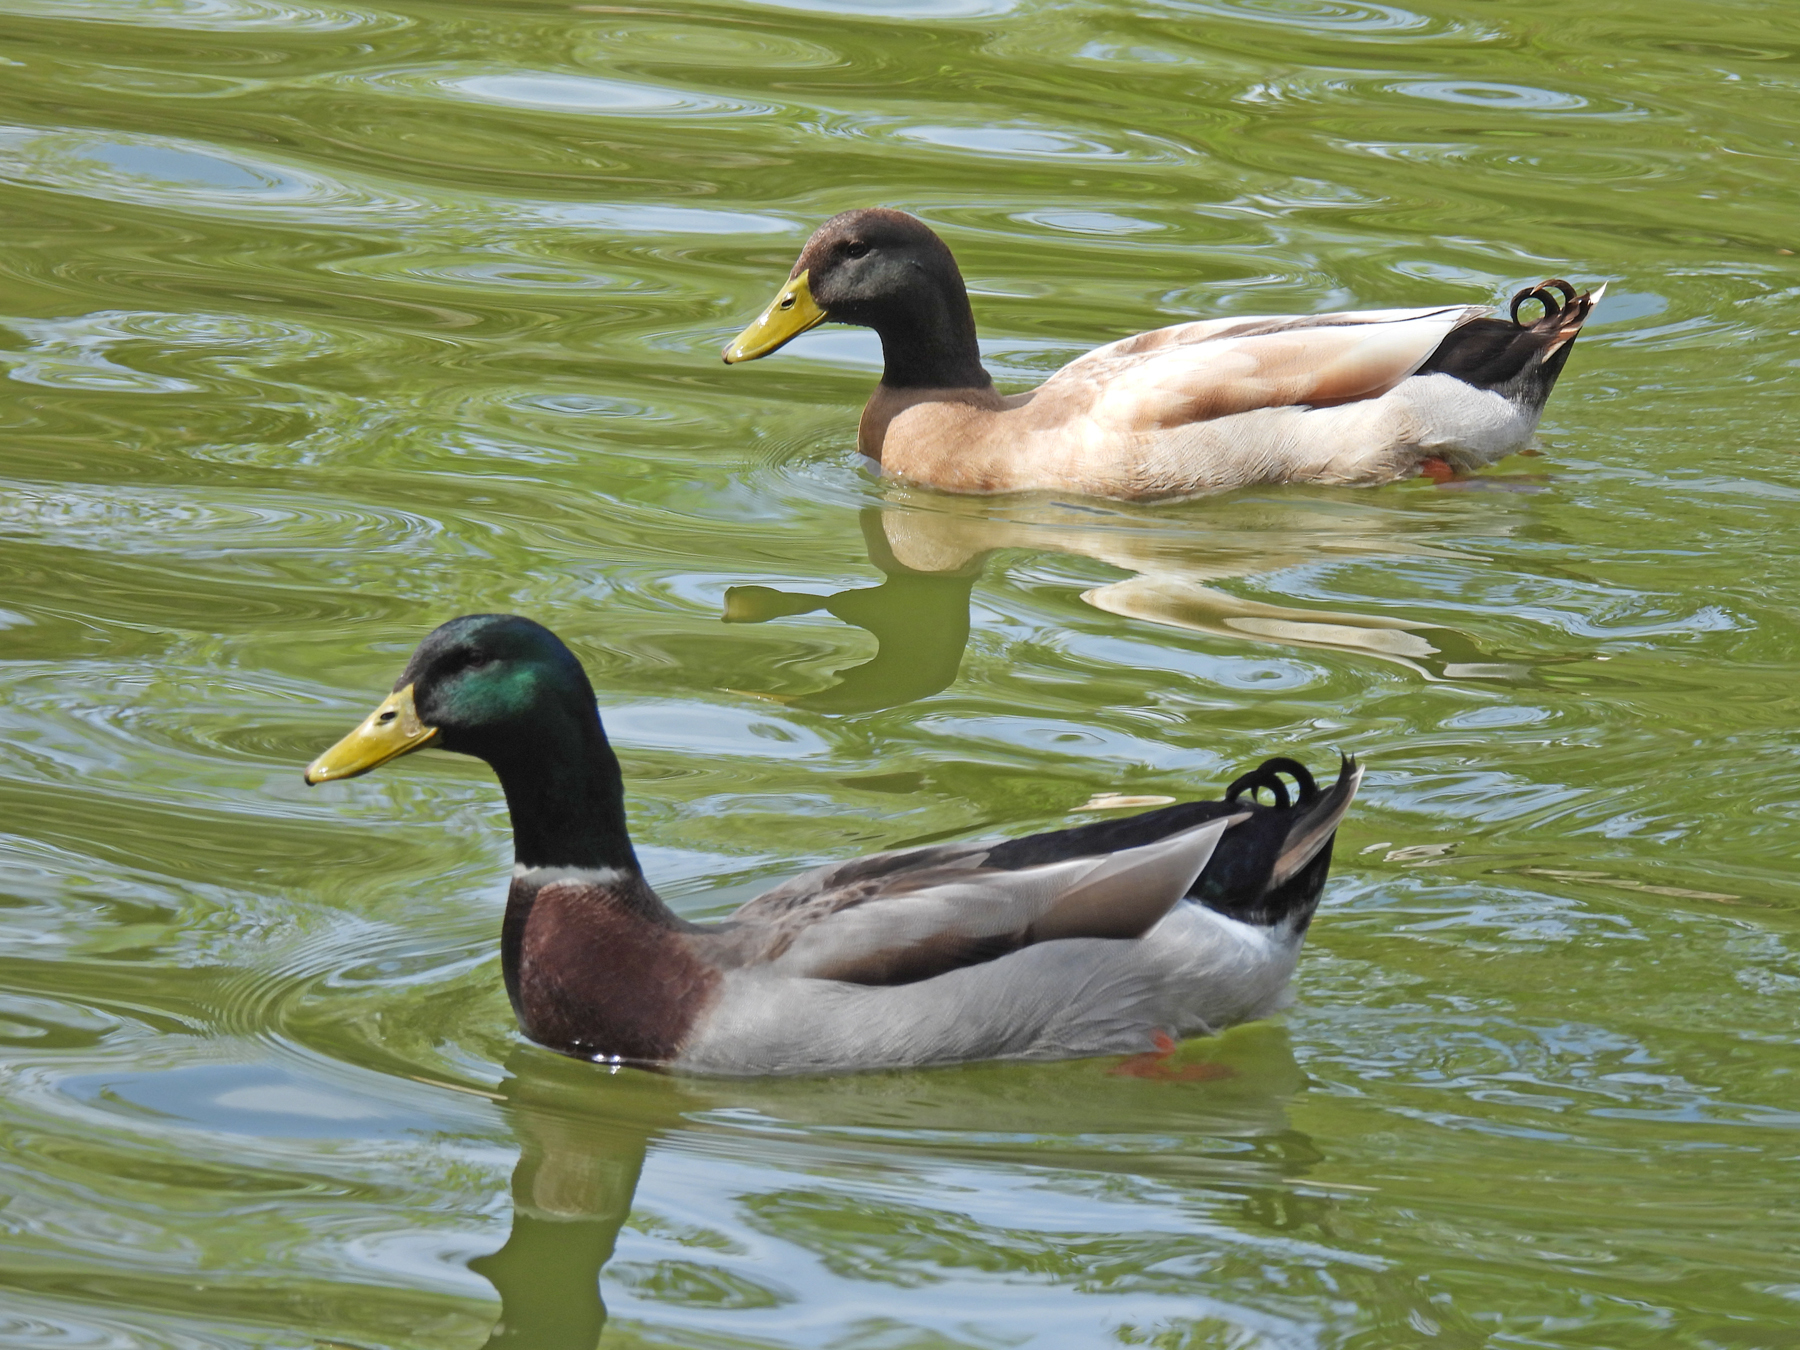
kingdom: Animalia
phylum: Chordata
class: Aves
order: Anseriformes
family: Anatidae
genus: Anas
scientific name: Anas platyrhynchos
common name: Mallard
